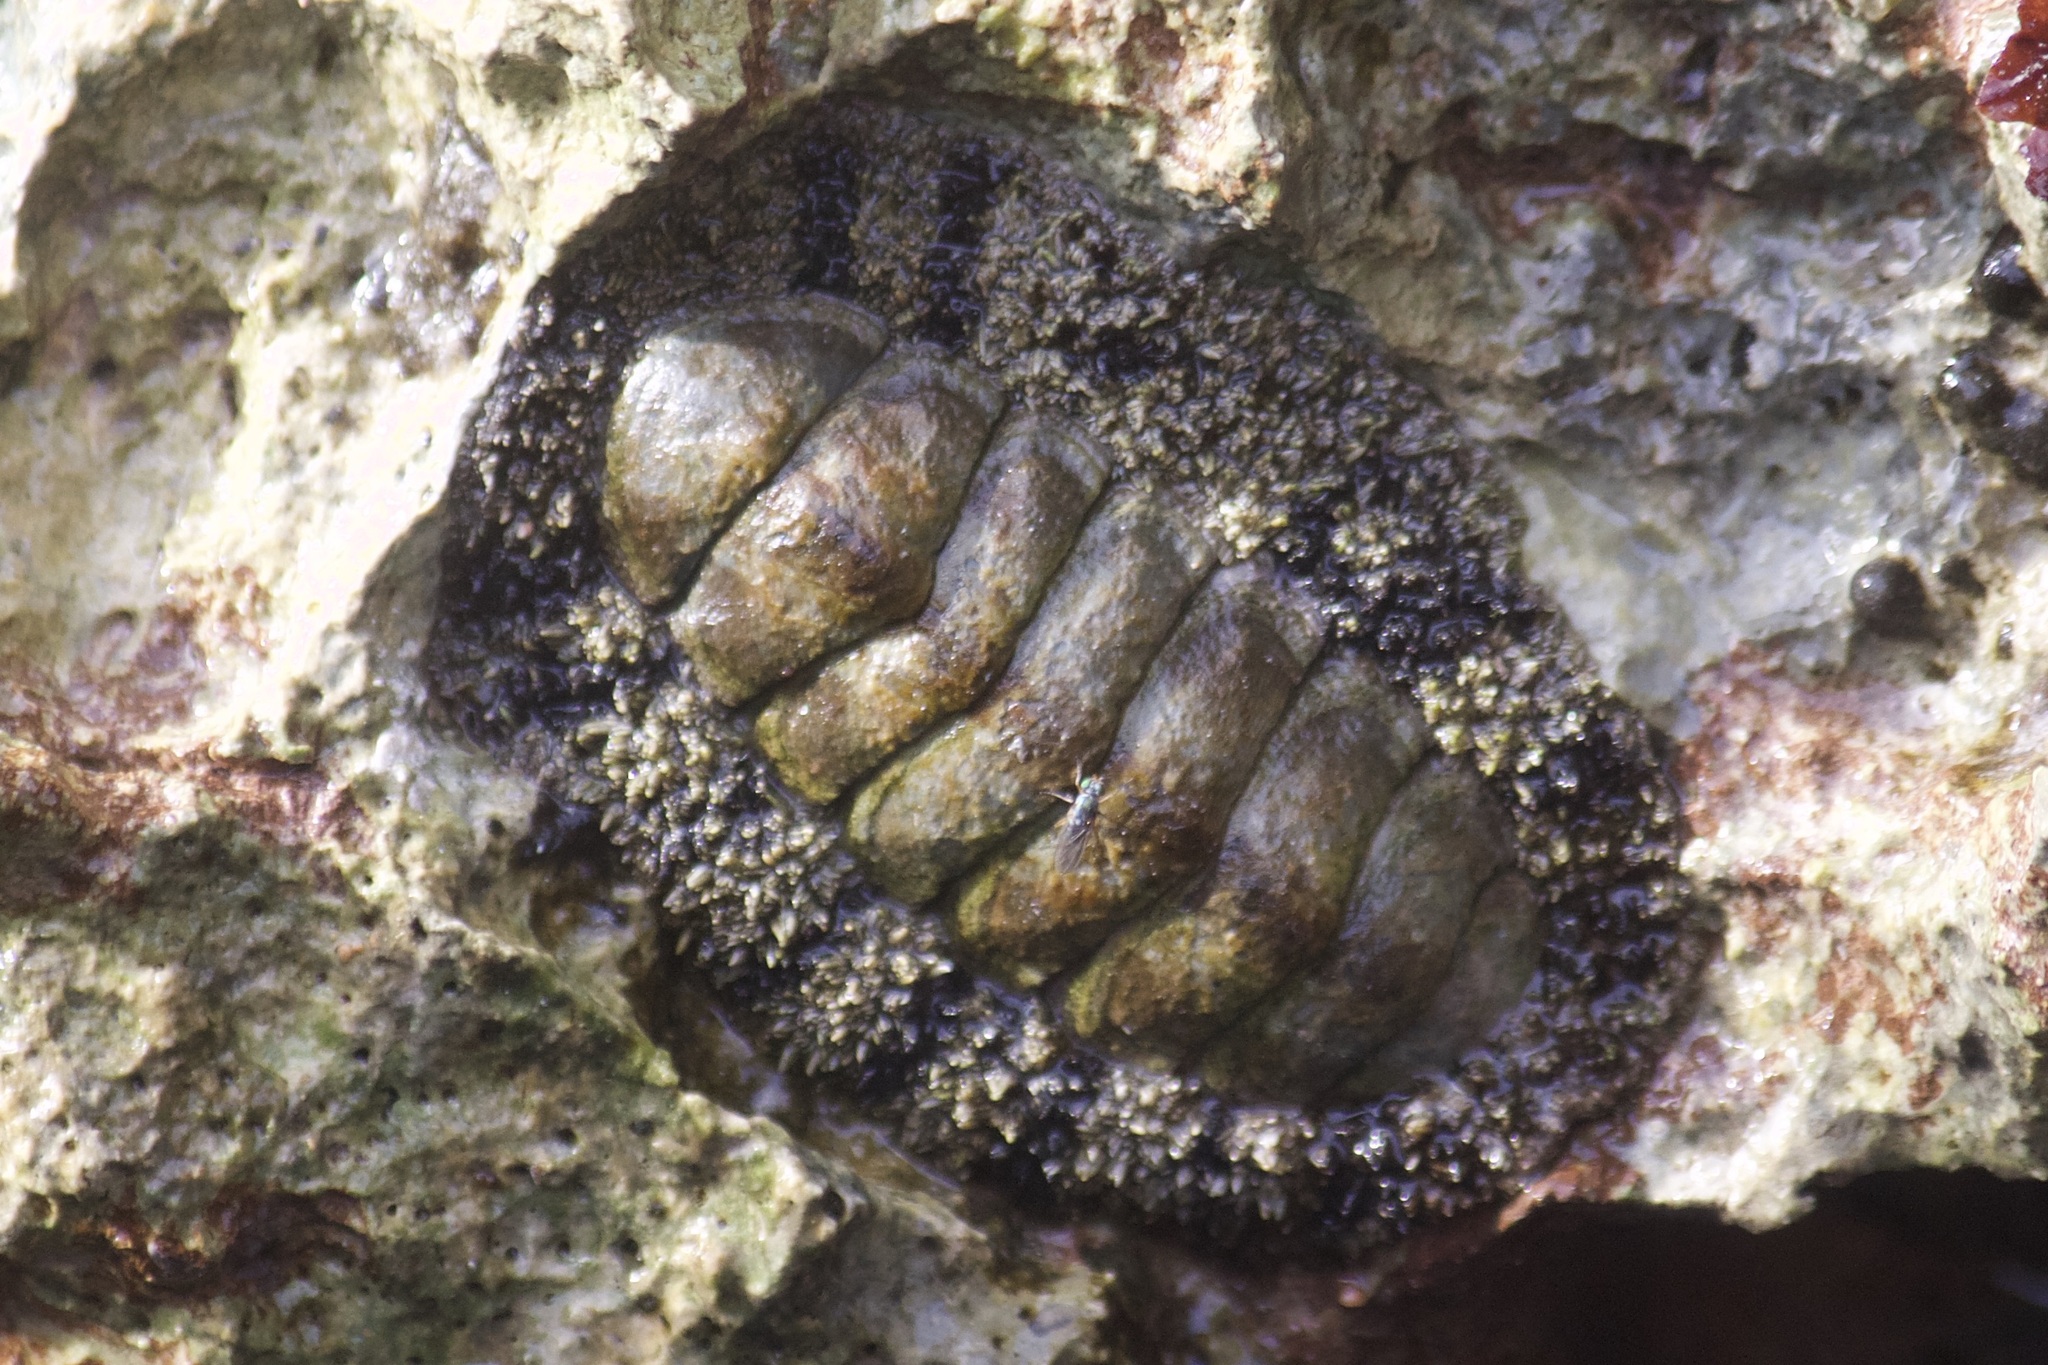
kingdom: Animalia
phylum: Mollusca
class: Polyplacophora
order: Chitonida
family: Chitonidae
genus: Acanthopleura
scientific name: Acanthopleura granulata
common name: West indian fuzzy chiton
